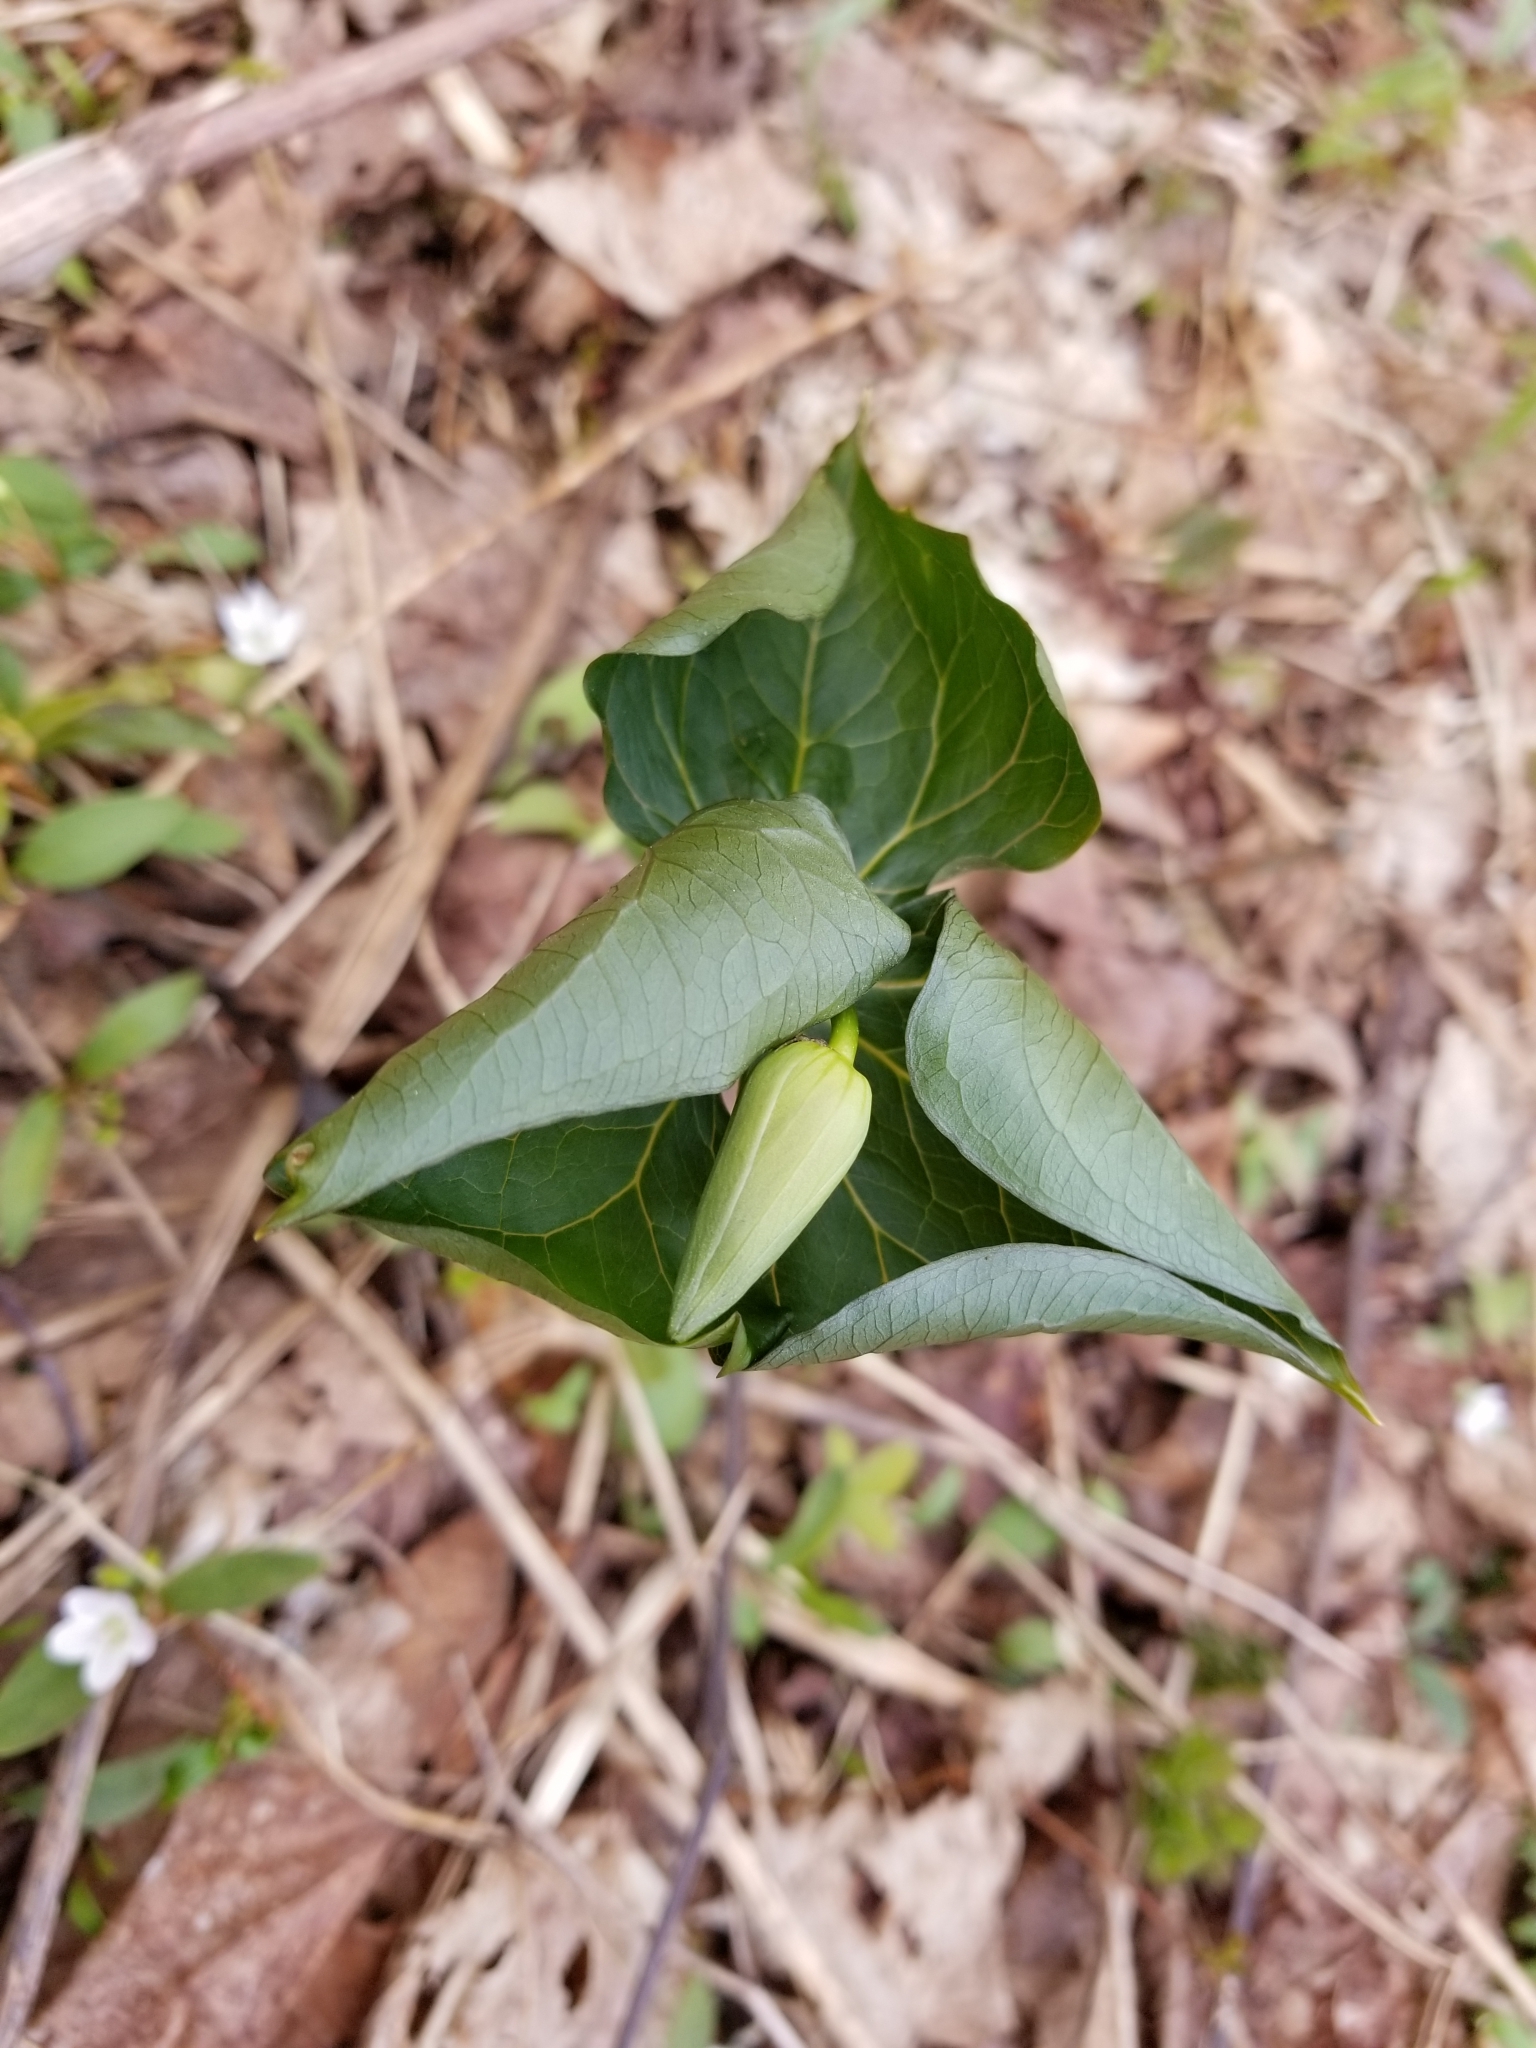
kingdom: Plantae
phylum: Tracheophyta
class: Liliopsida
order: Liliales
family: Melanthiaceae
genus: Trillium
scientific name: Trillium erectum
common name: Purple trillium
